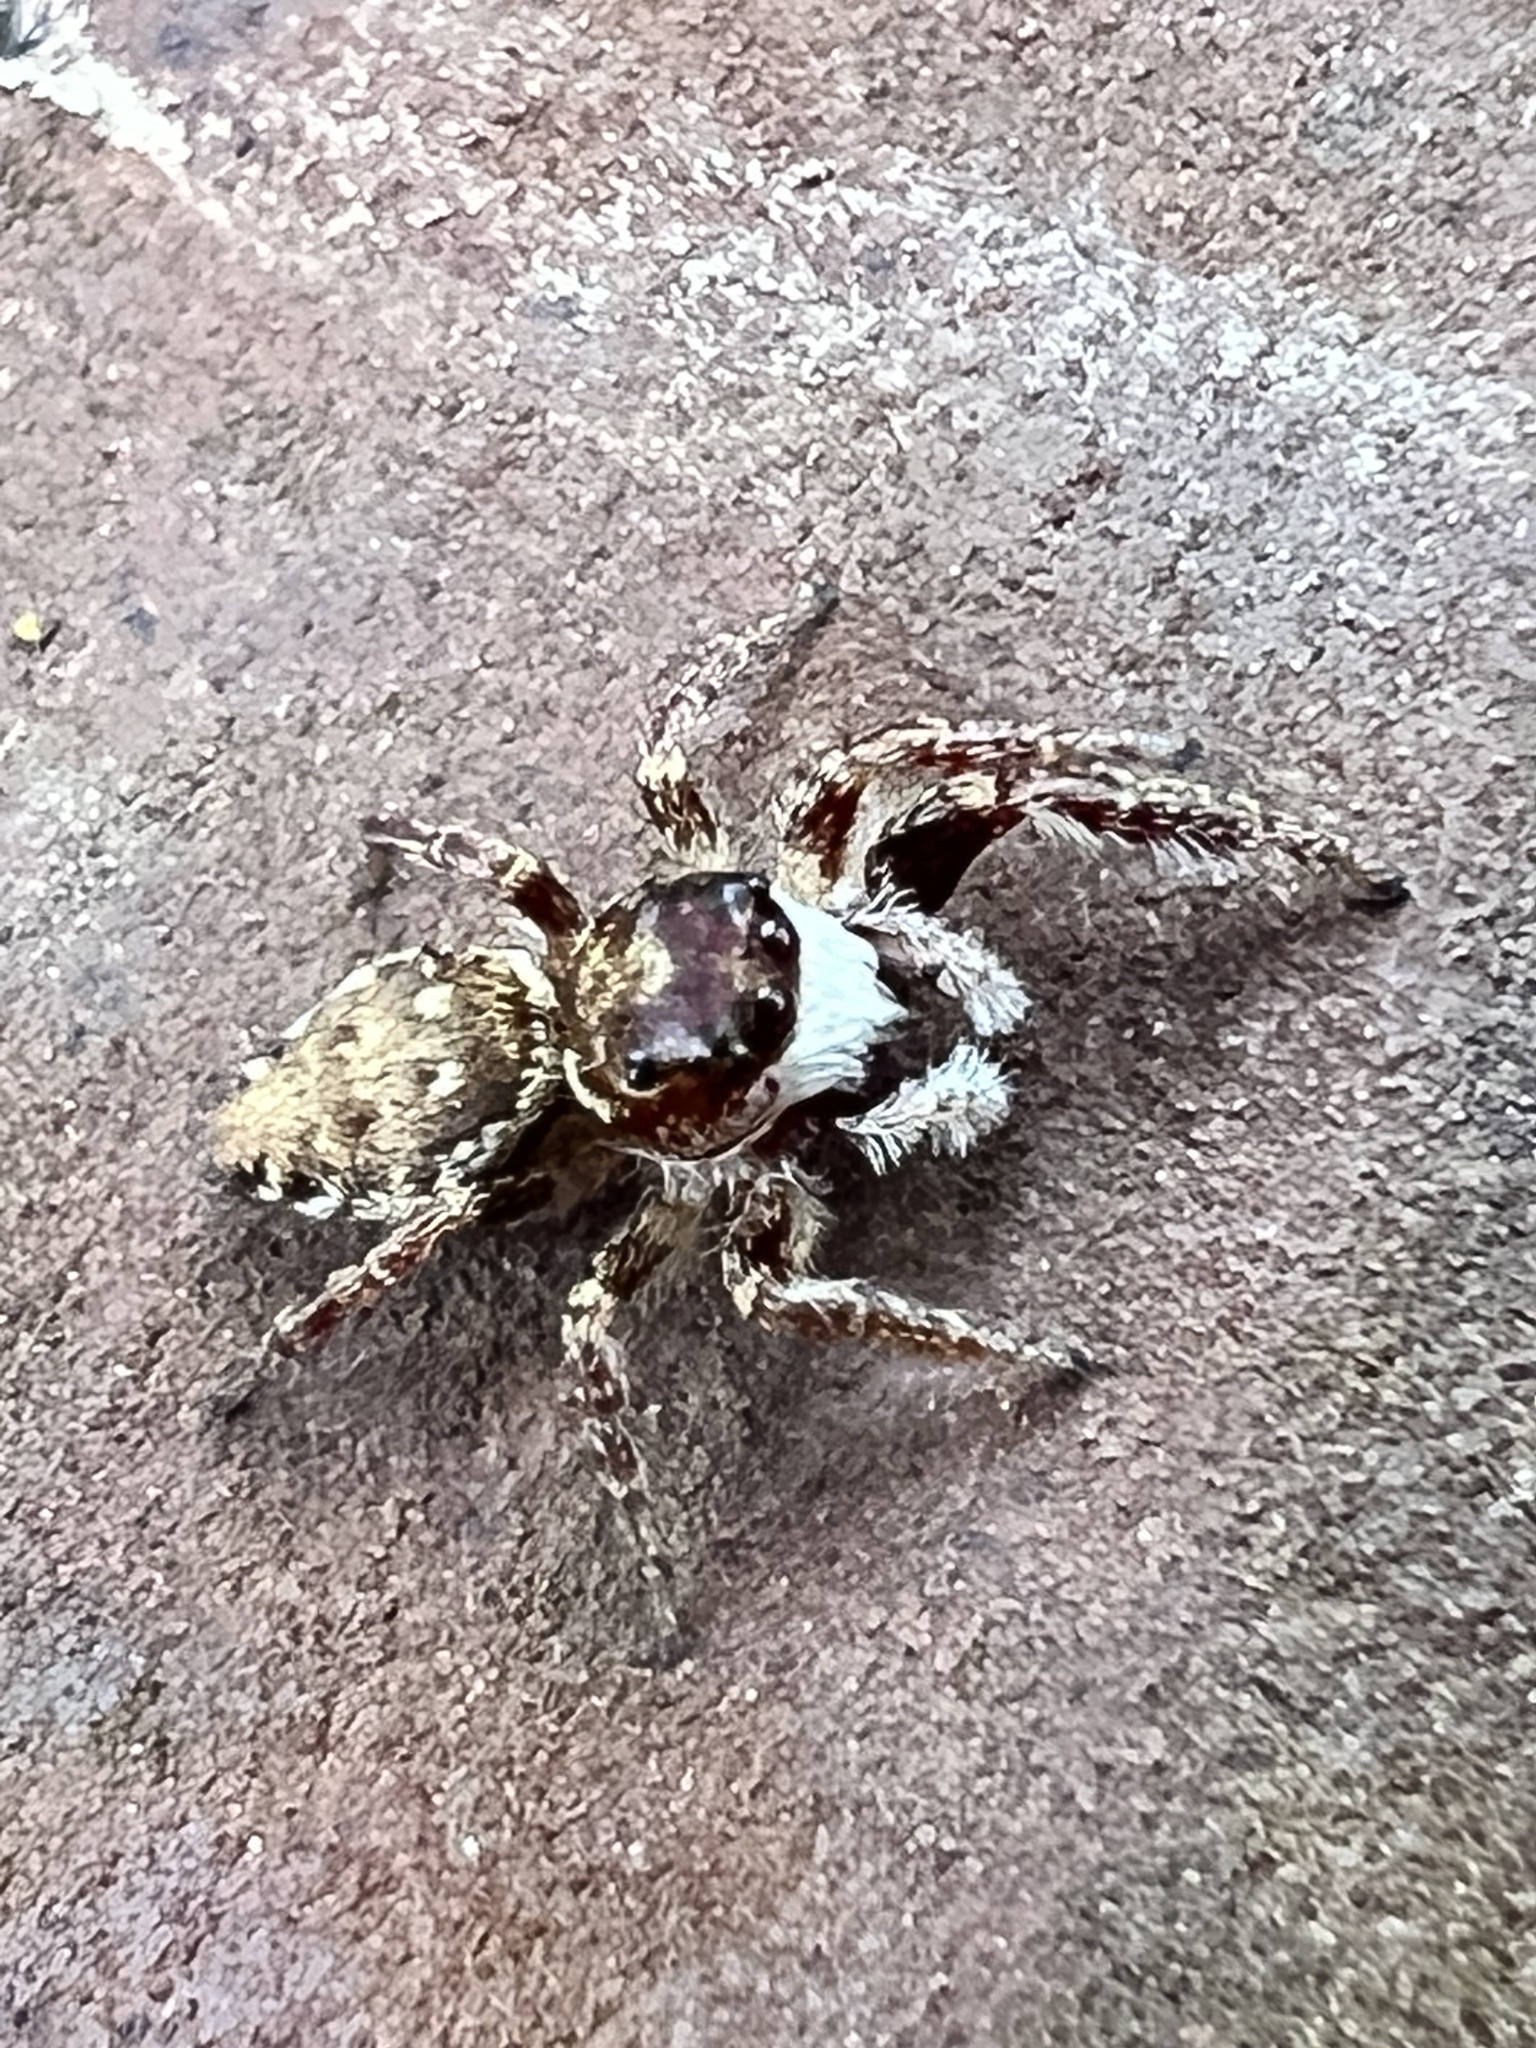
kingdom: Animalia
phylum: Arthropoda
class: Arachnida
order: Araneae
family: Salticidae
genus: Phanias
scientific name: Phanias albeolus
